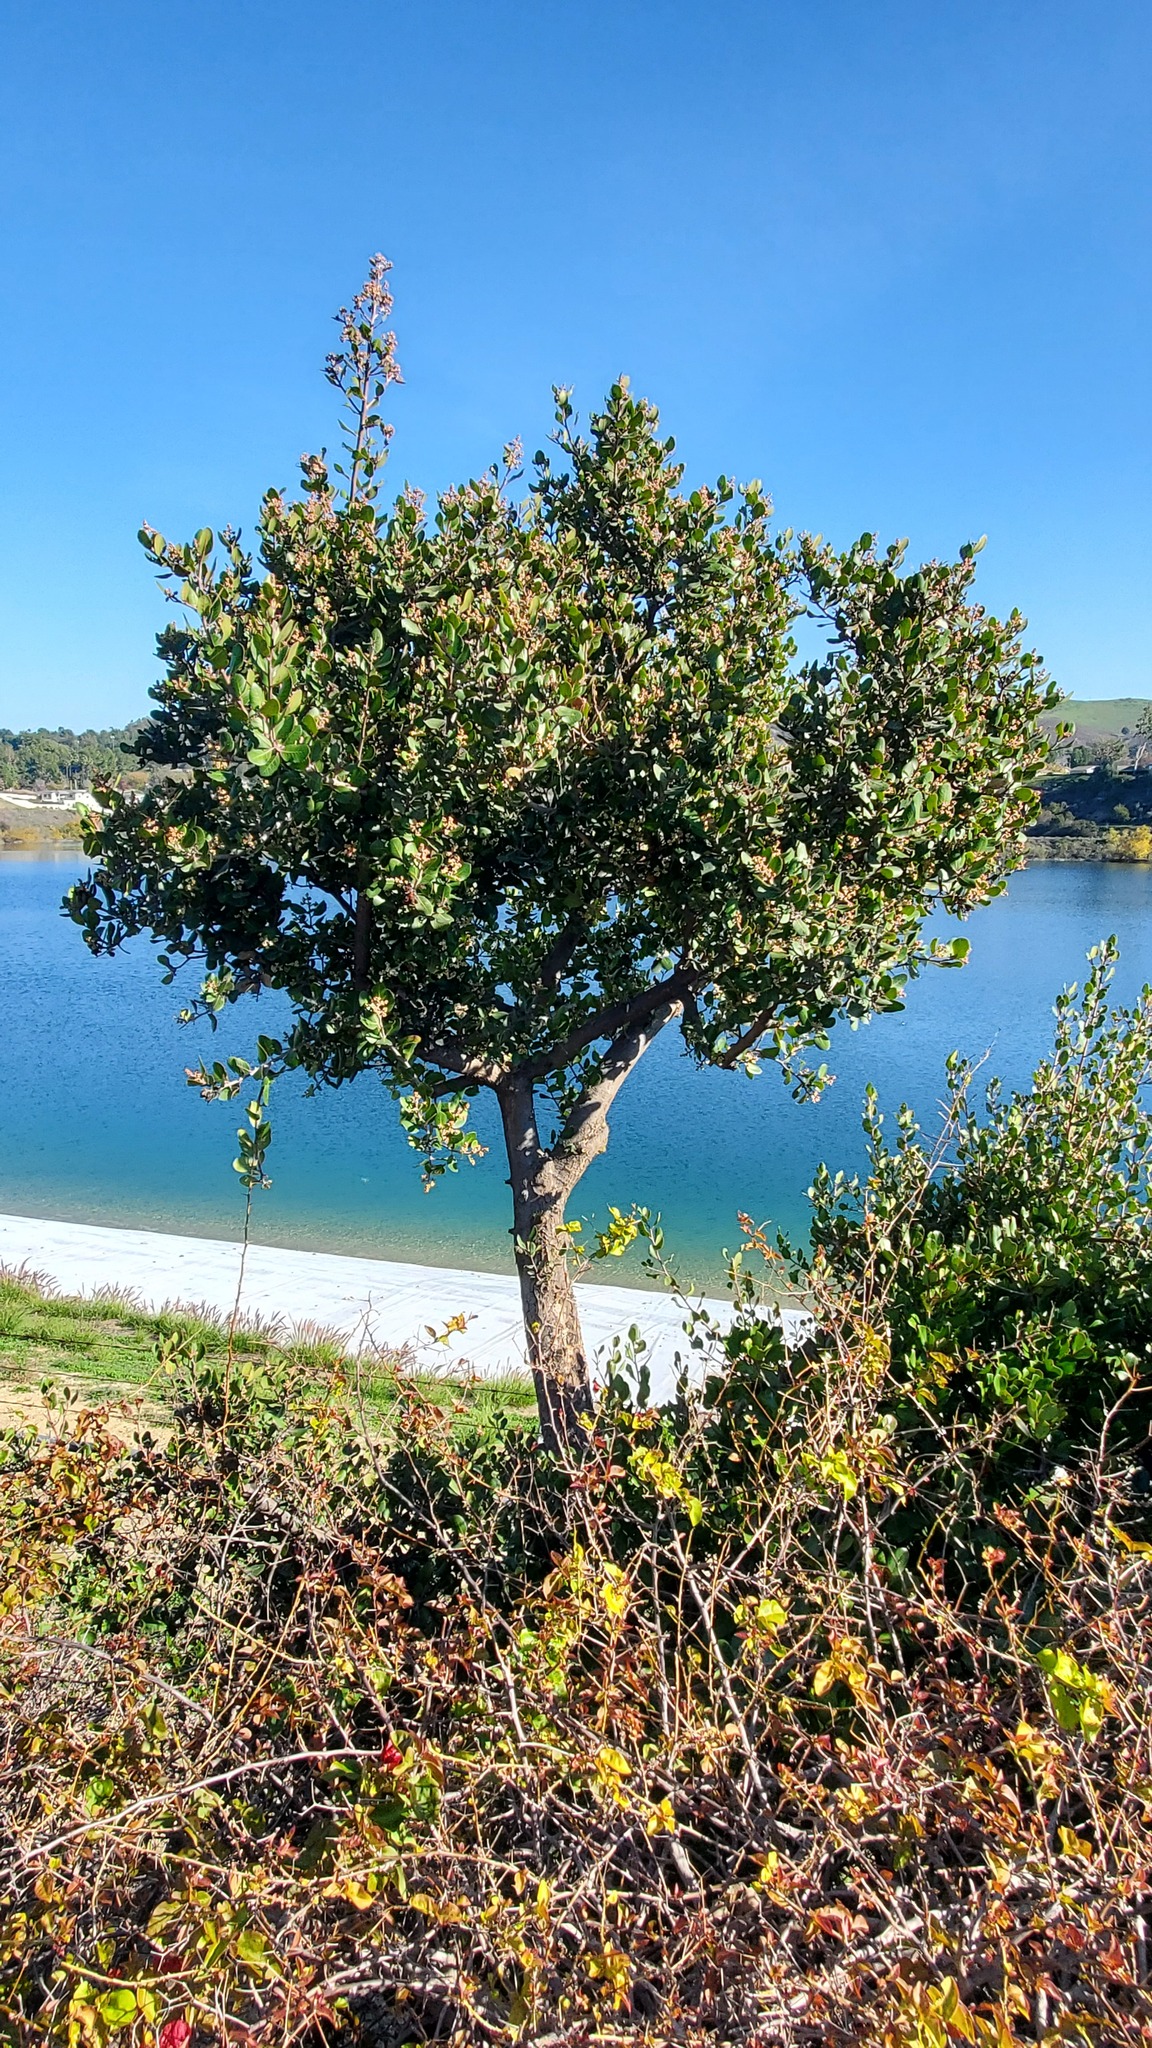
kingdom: Plantae
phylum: Tracheophyta
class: Magnoliopsida
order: Sapindales
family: Anacardiaceae
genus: Rhus
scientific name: Rhus integrifolia
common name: Lemonade sumac
